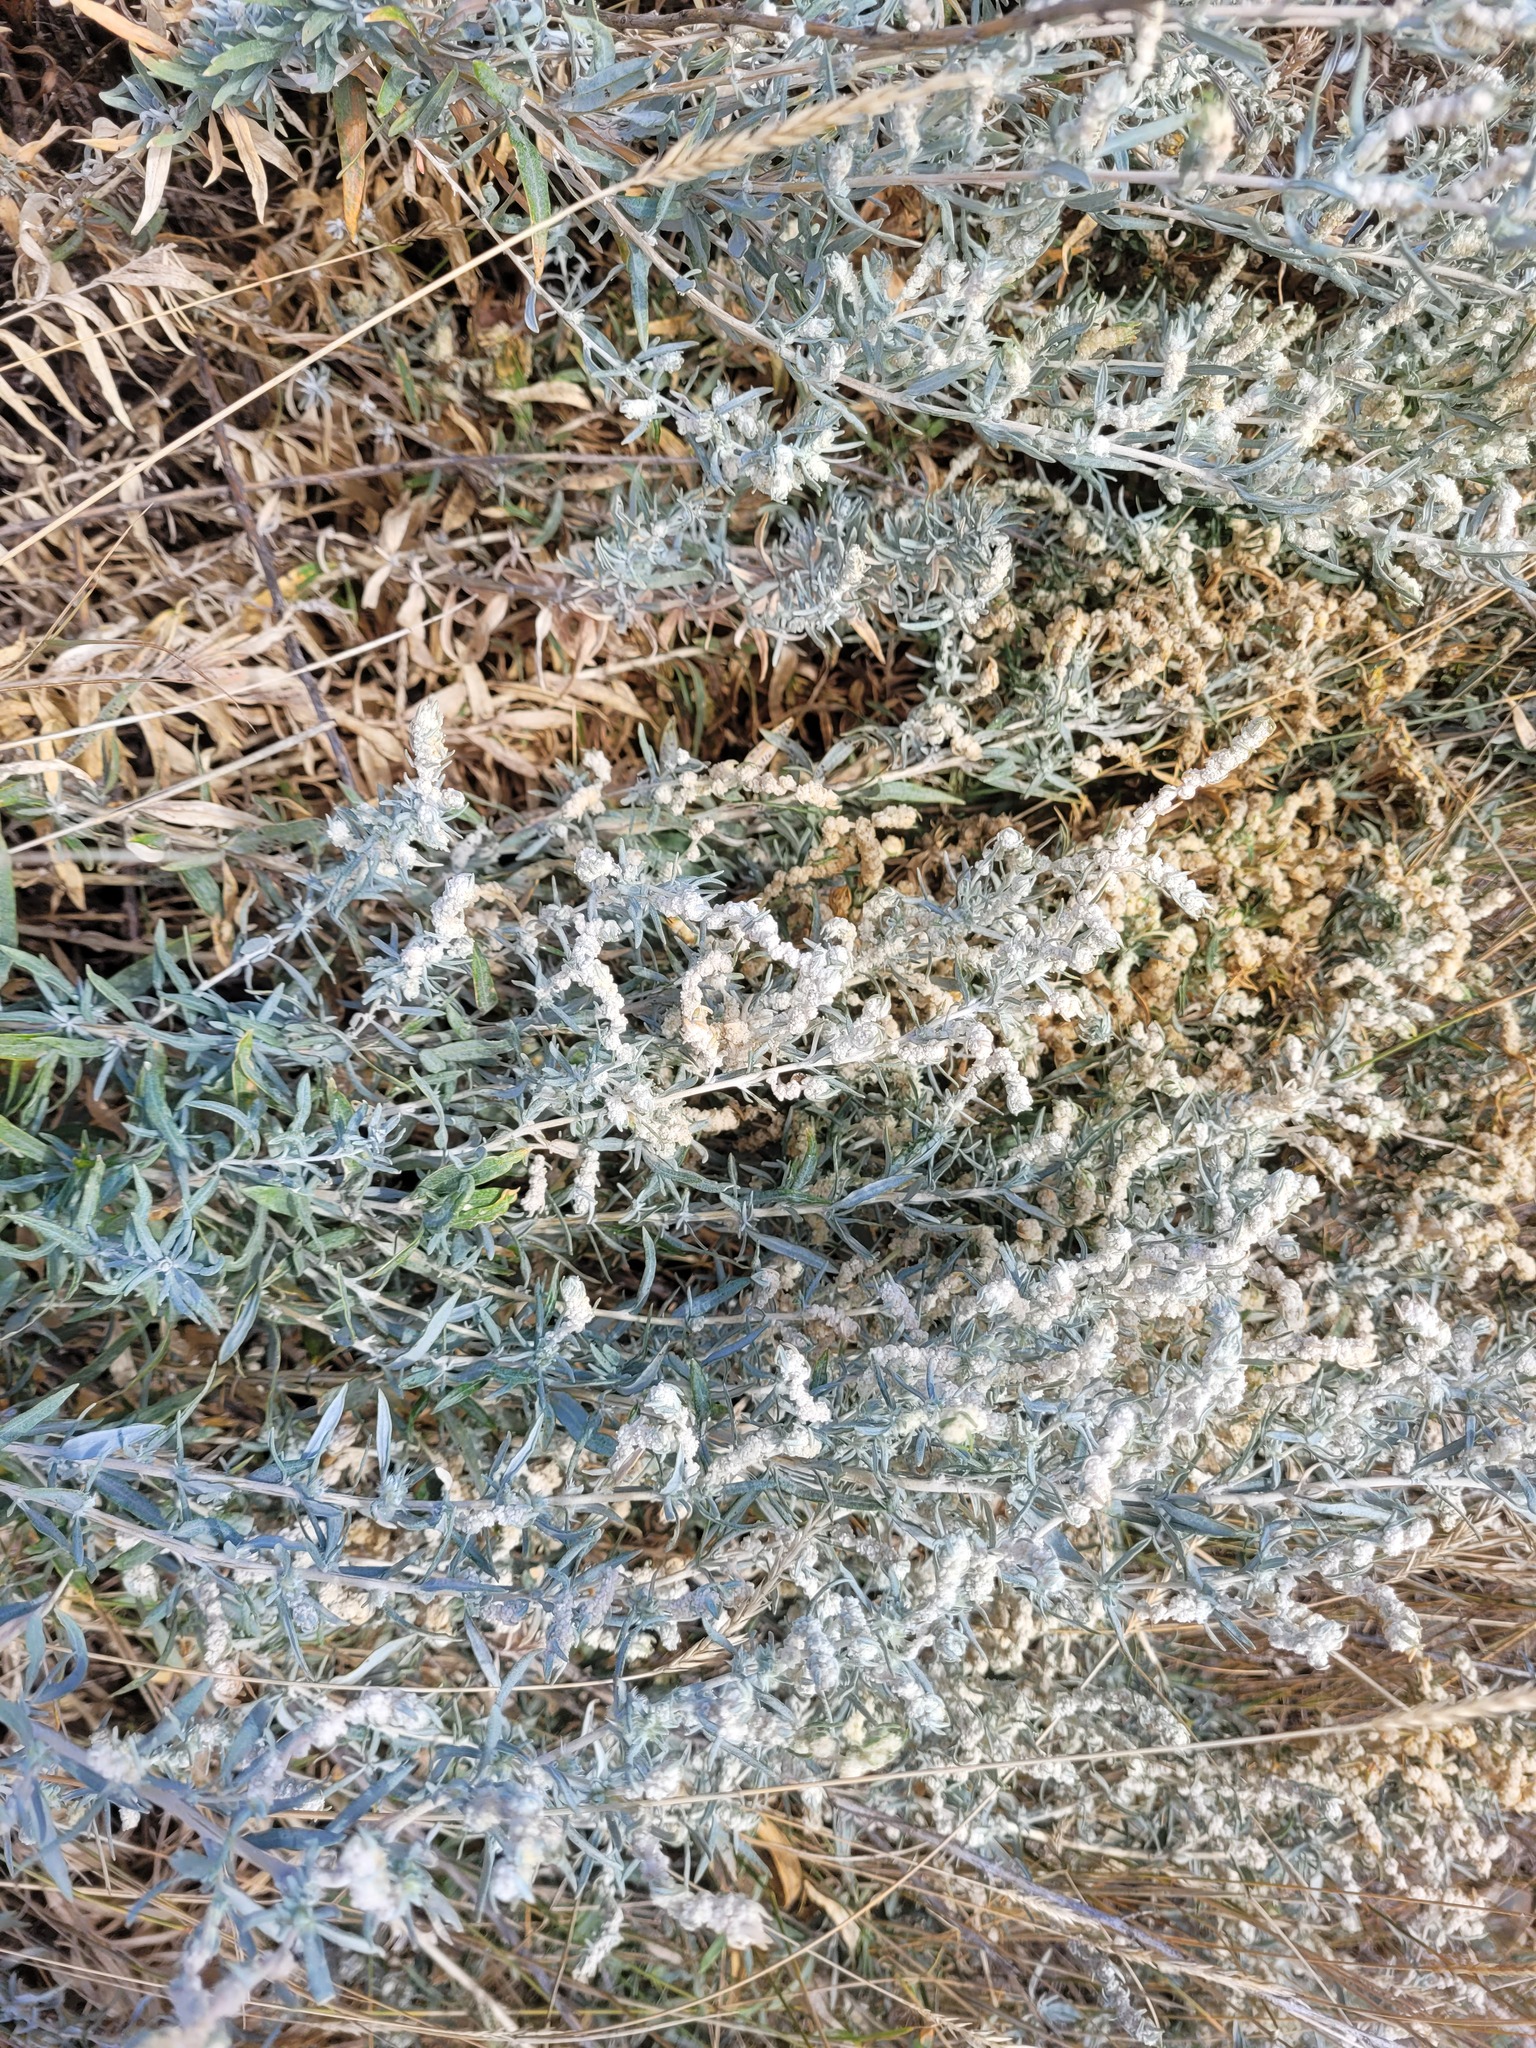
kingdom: Plantae
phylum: Tracheophyta
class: Magnoliopsida
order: Caryophyllales
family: Amaranthaceae
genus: Krascheninnikovia
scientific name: Krascheninnikovia ceratoides
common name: Pamirian winterfat
